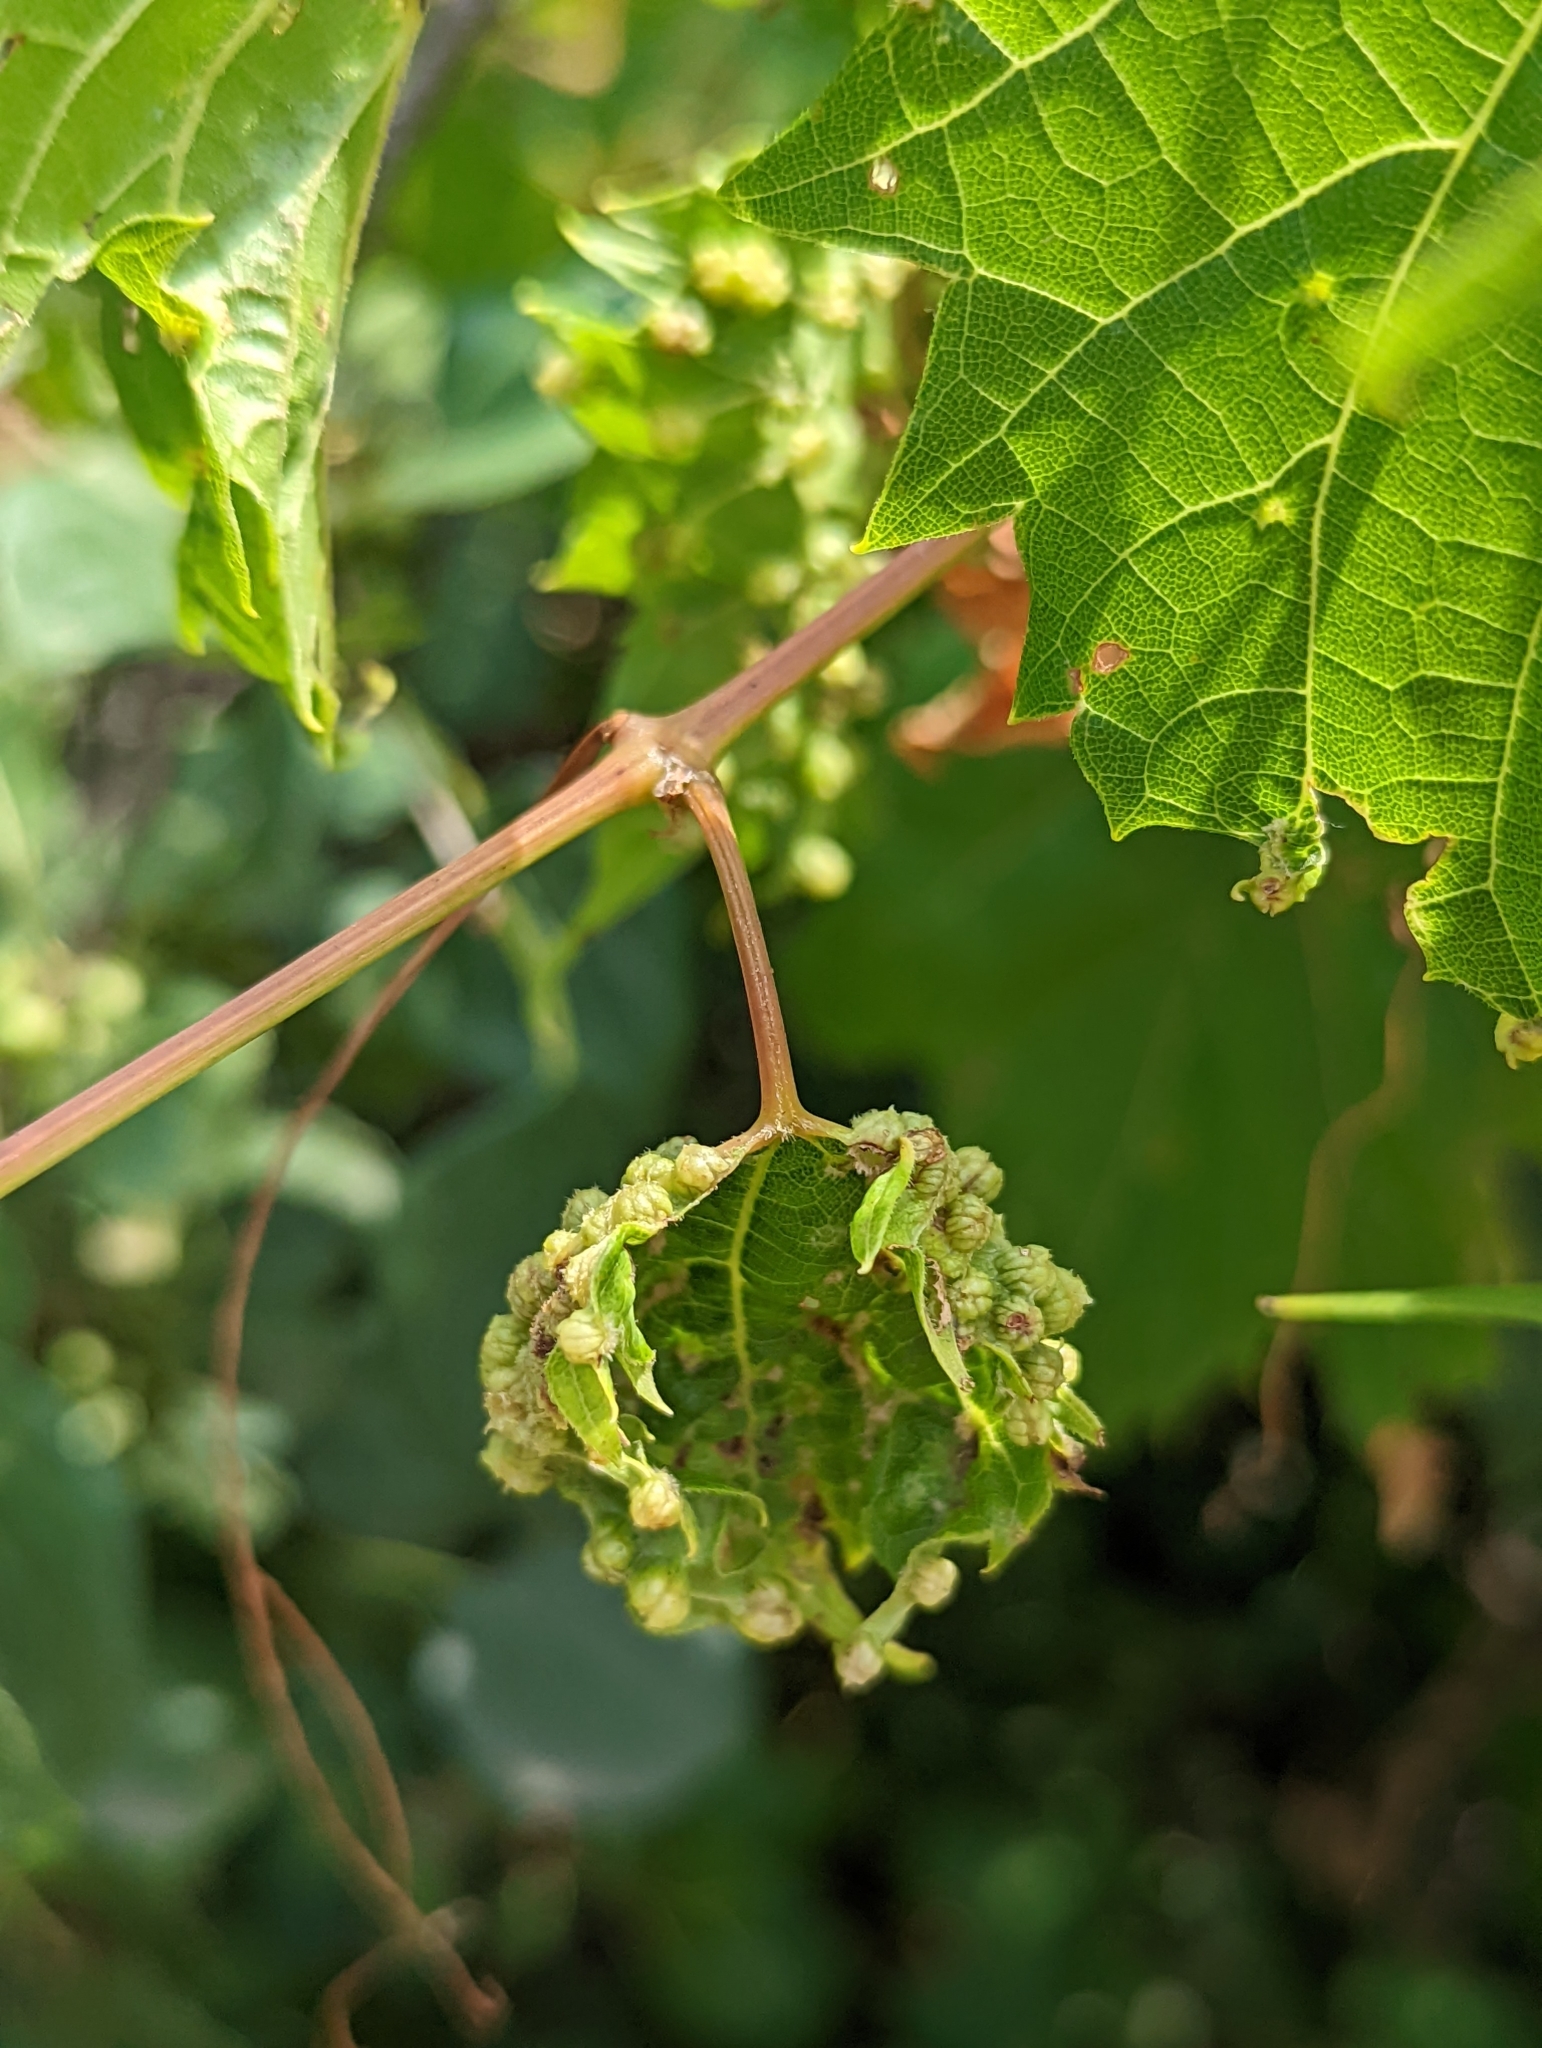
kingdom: Animalia
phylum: Arthropoda
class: Insecta
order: Hemiptera
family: Phylloxeridae
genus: Daktulosphaira
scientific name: Daktulosphaira vitifoliae
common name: Grape phylloxera
